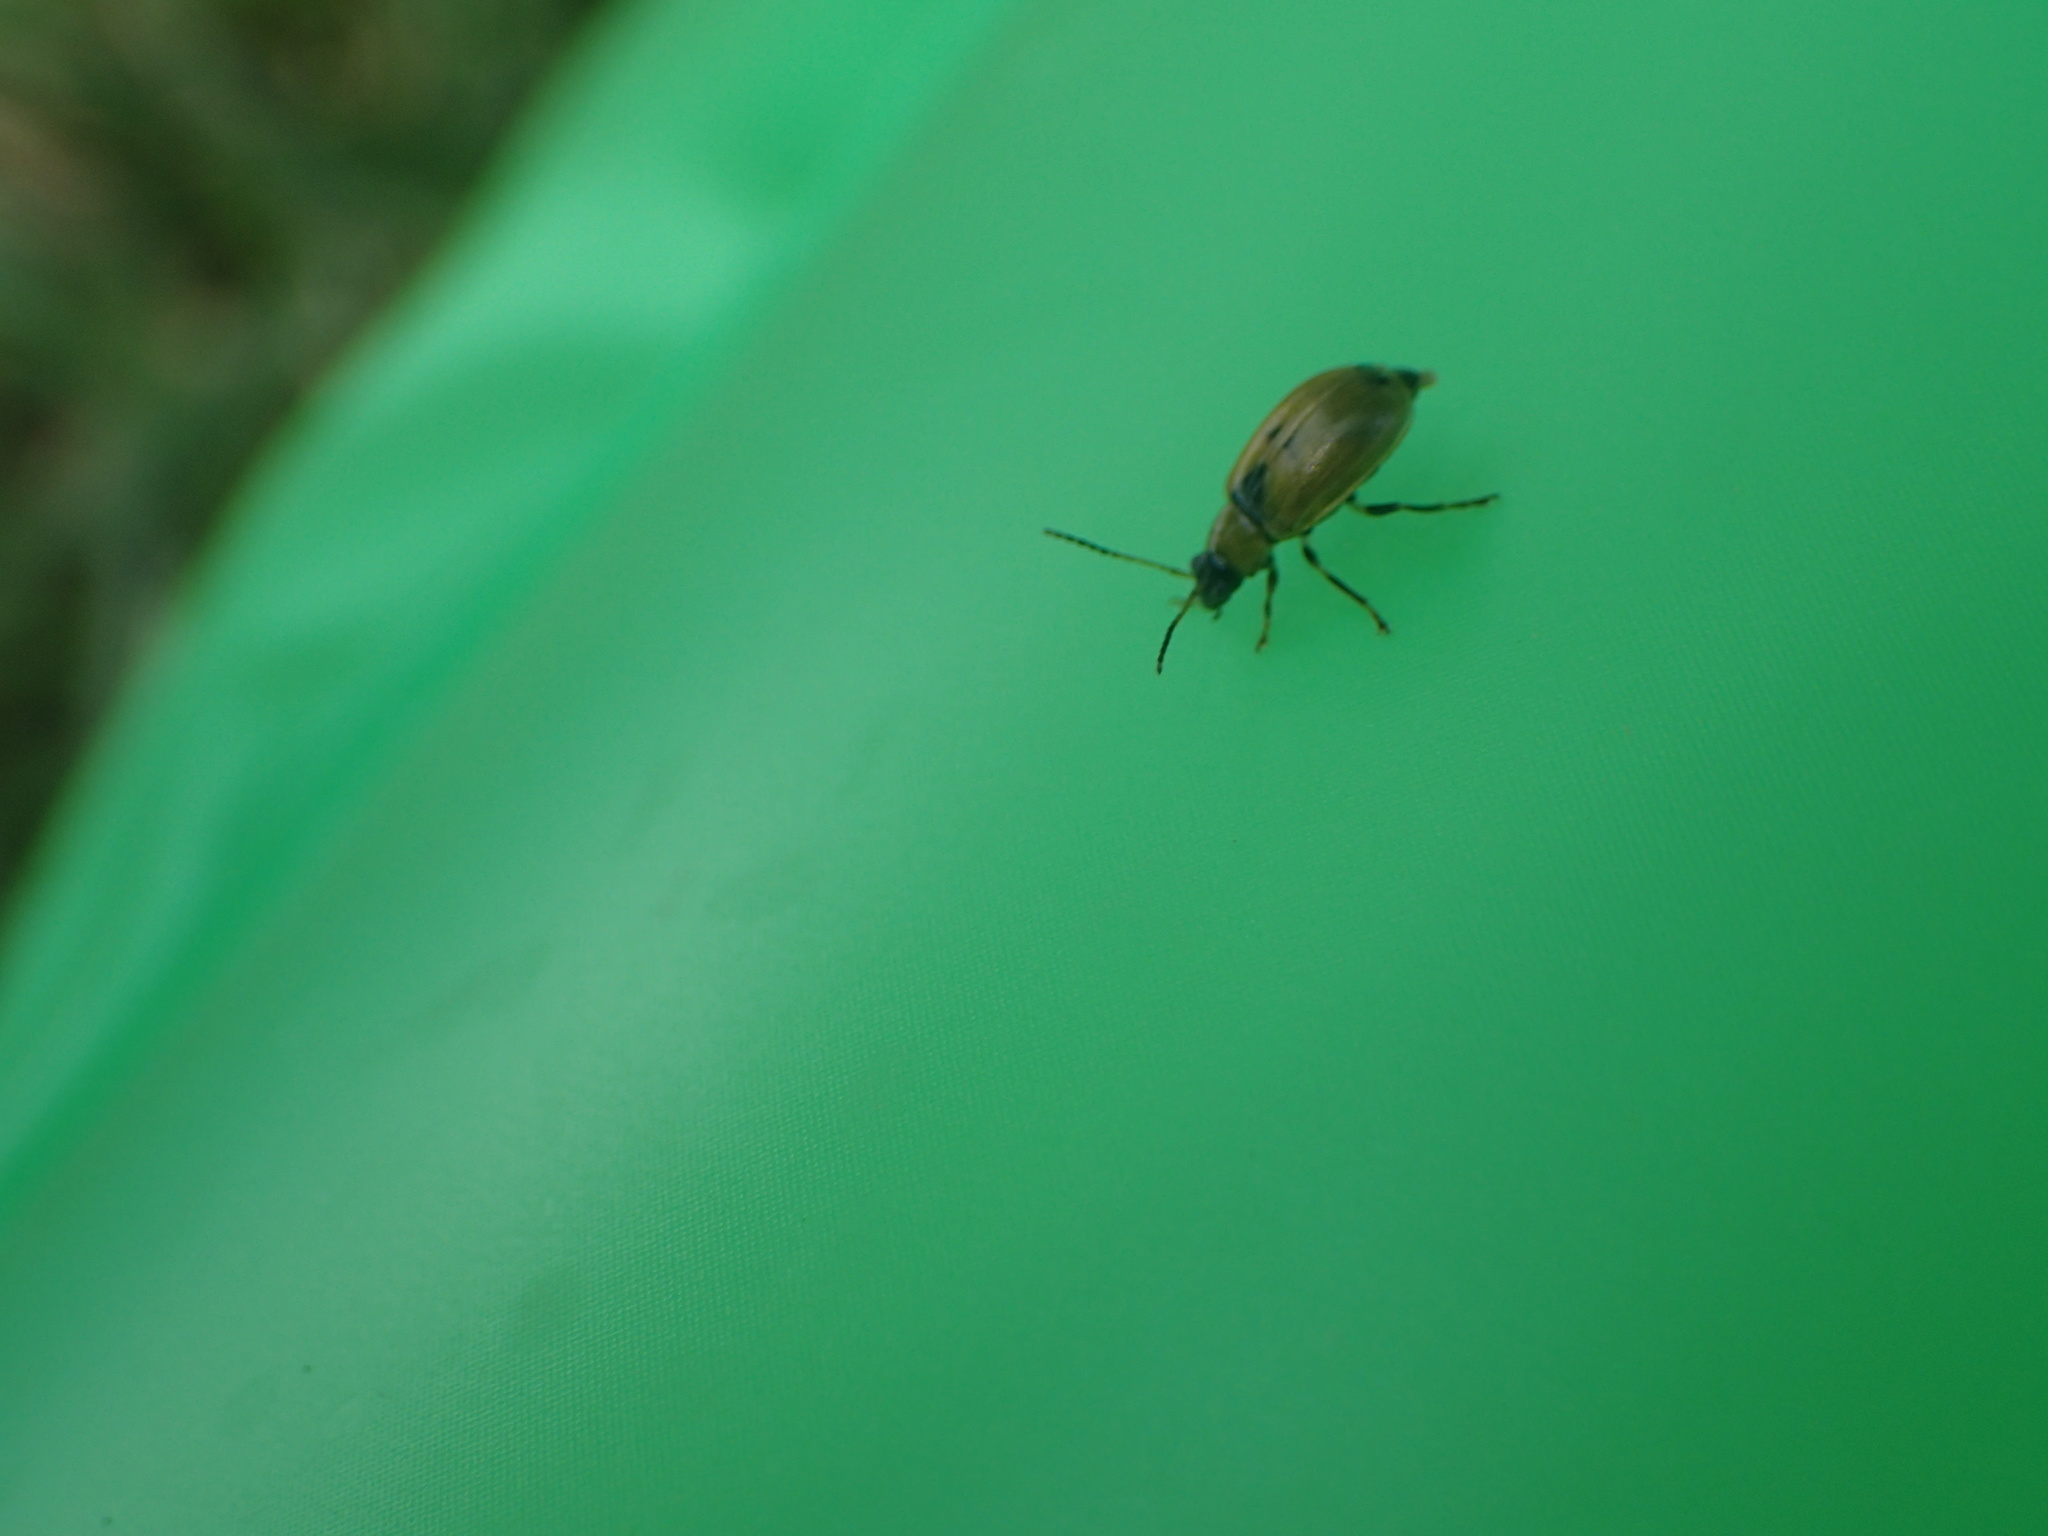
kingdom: Animalia
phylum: Arthropoda
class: Insecta
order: Coleoptera
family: Chrysomelidae
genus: Cerotoma
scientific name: Cerotoma trifurcata
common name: Bean leaf beetle
